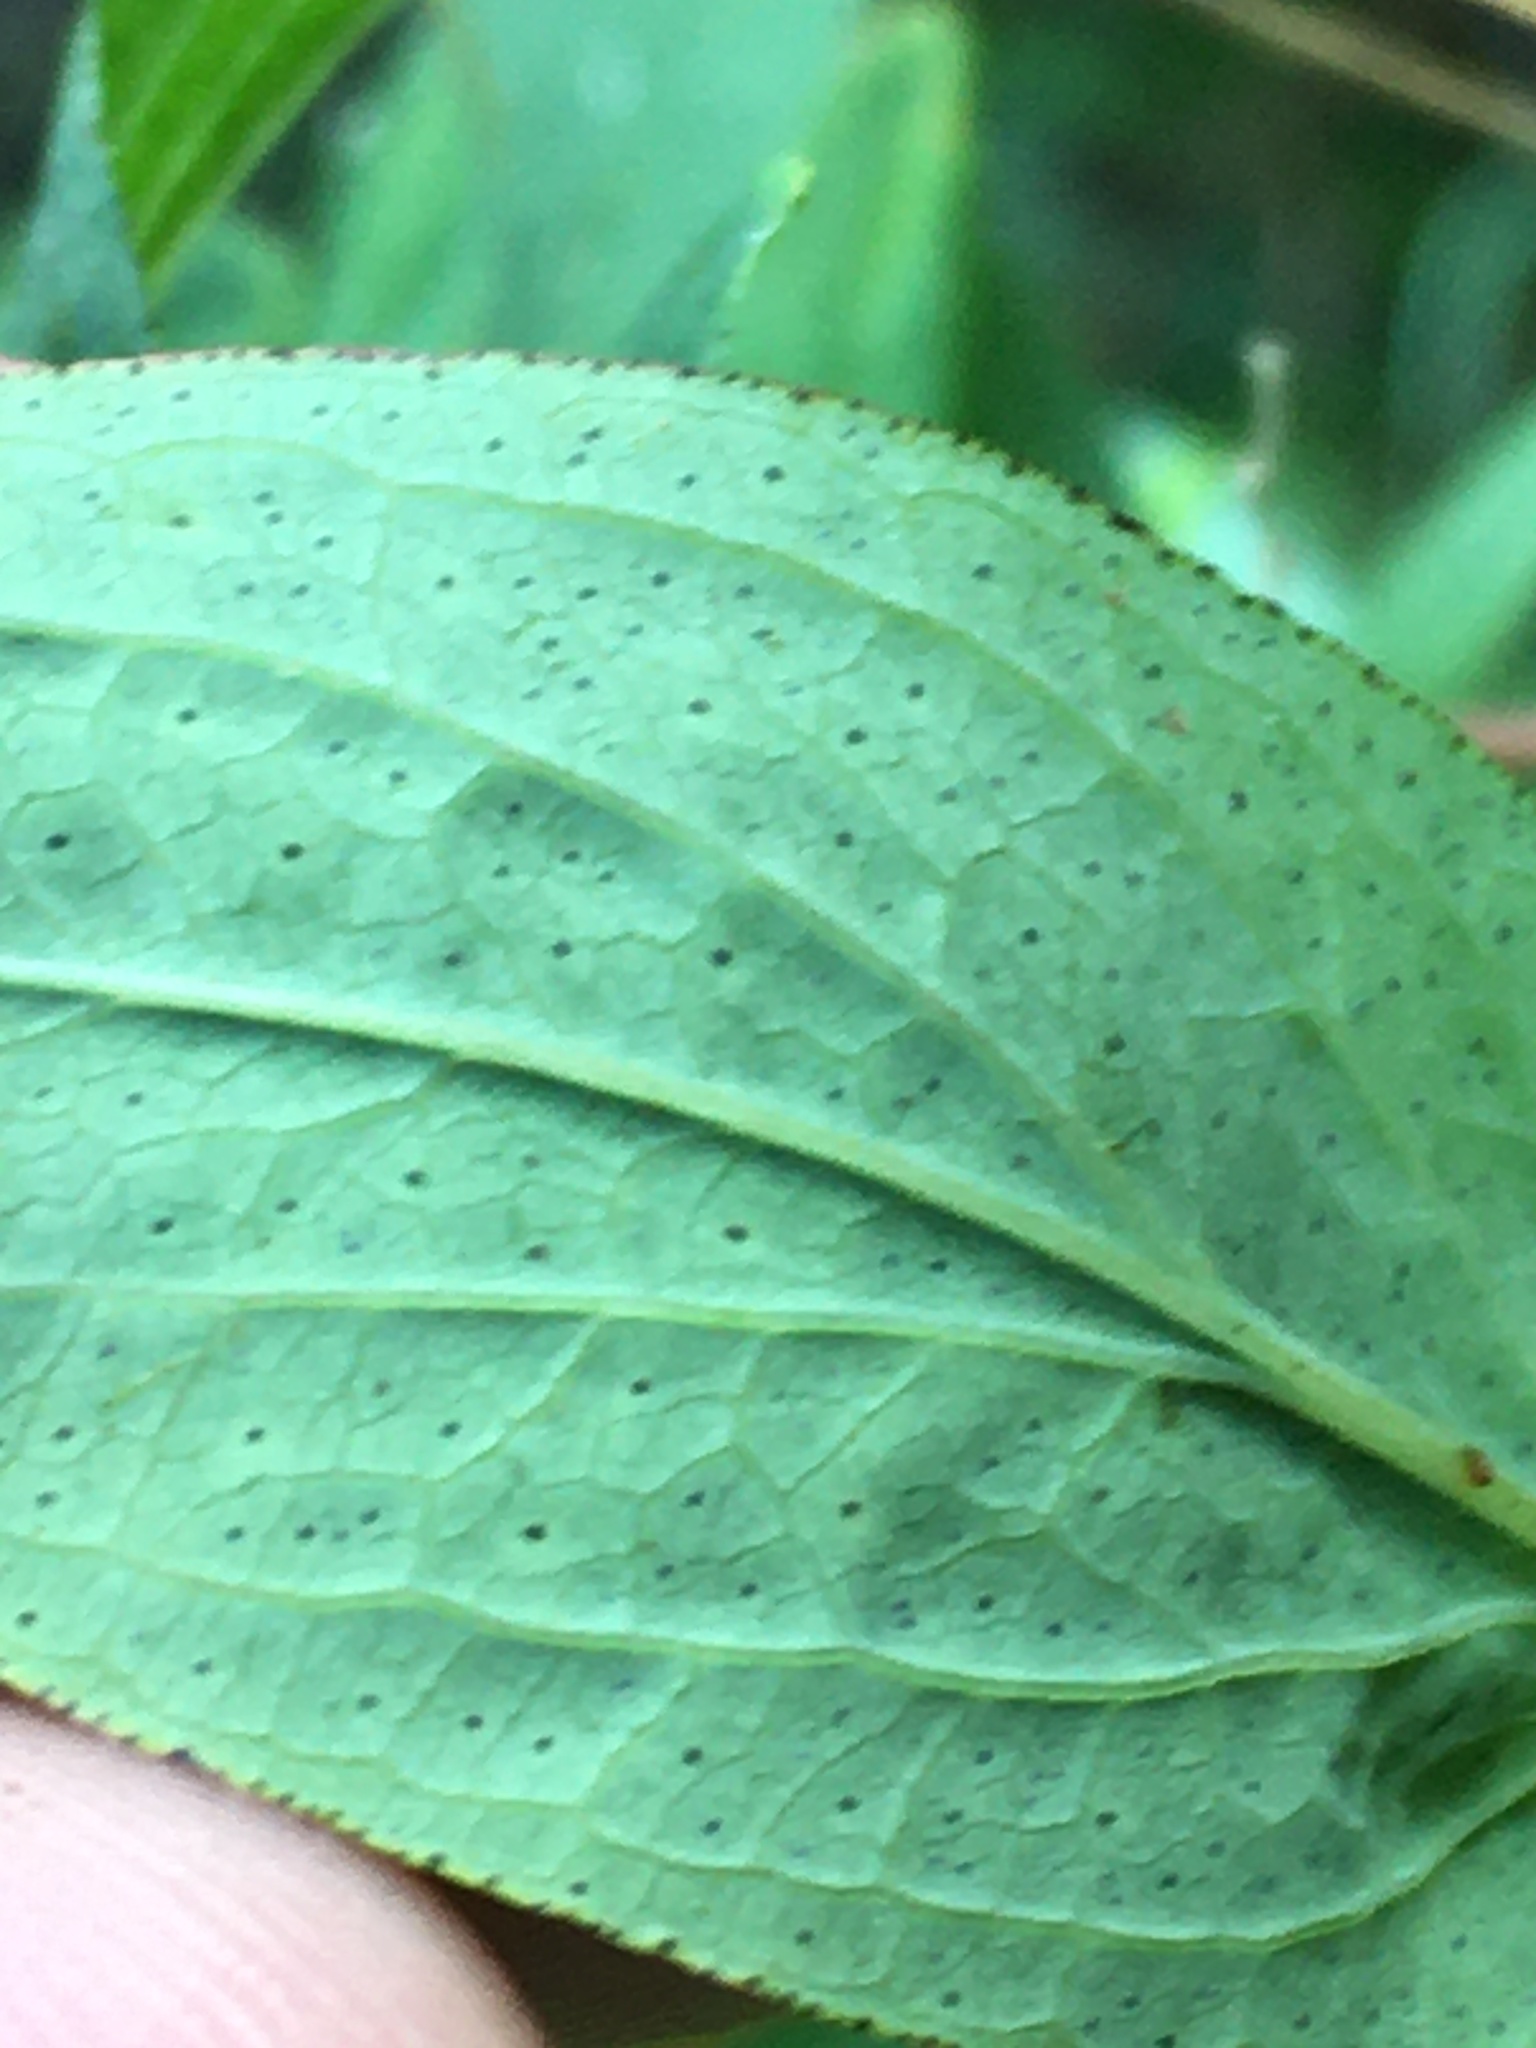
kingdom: Plantae
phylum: Tracheophyta
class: Magnoliopsida
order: Malpighiales
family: Hypericaceae
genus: Hypericum
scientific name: Hypericum punctatum
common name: Spotted st. john's-wort
